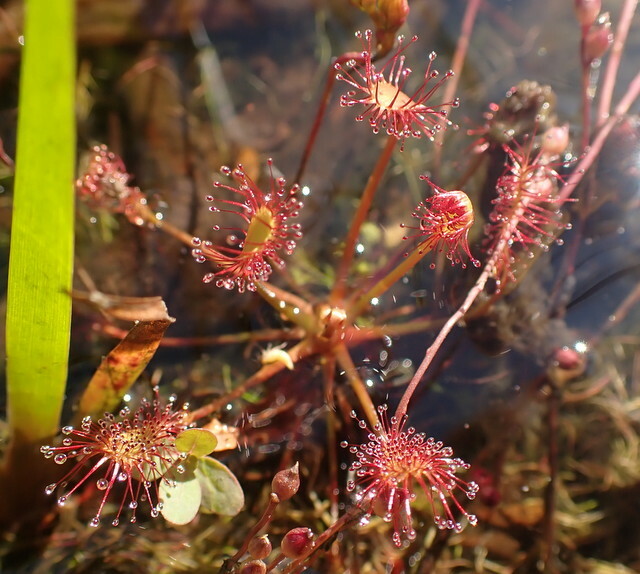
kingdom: Plantae
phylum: Tracheophyta
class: Magnoliopsida
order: Caryophyllales
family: Droseraceae
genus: Drosera
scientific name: Drosera intermedia
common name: Oblong-leaved sundew
